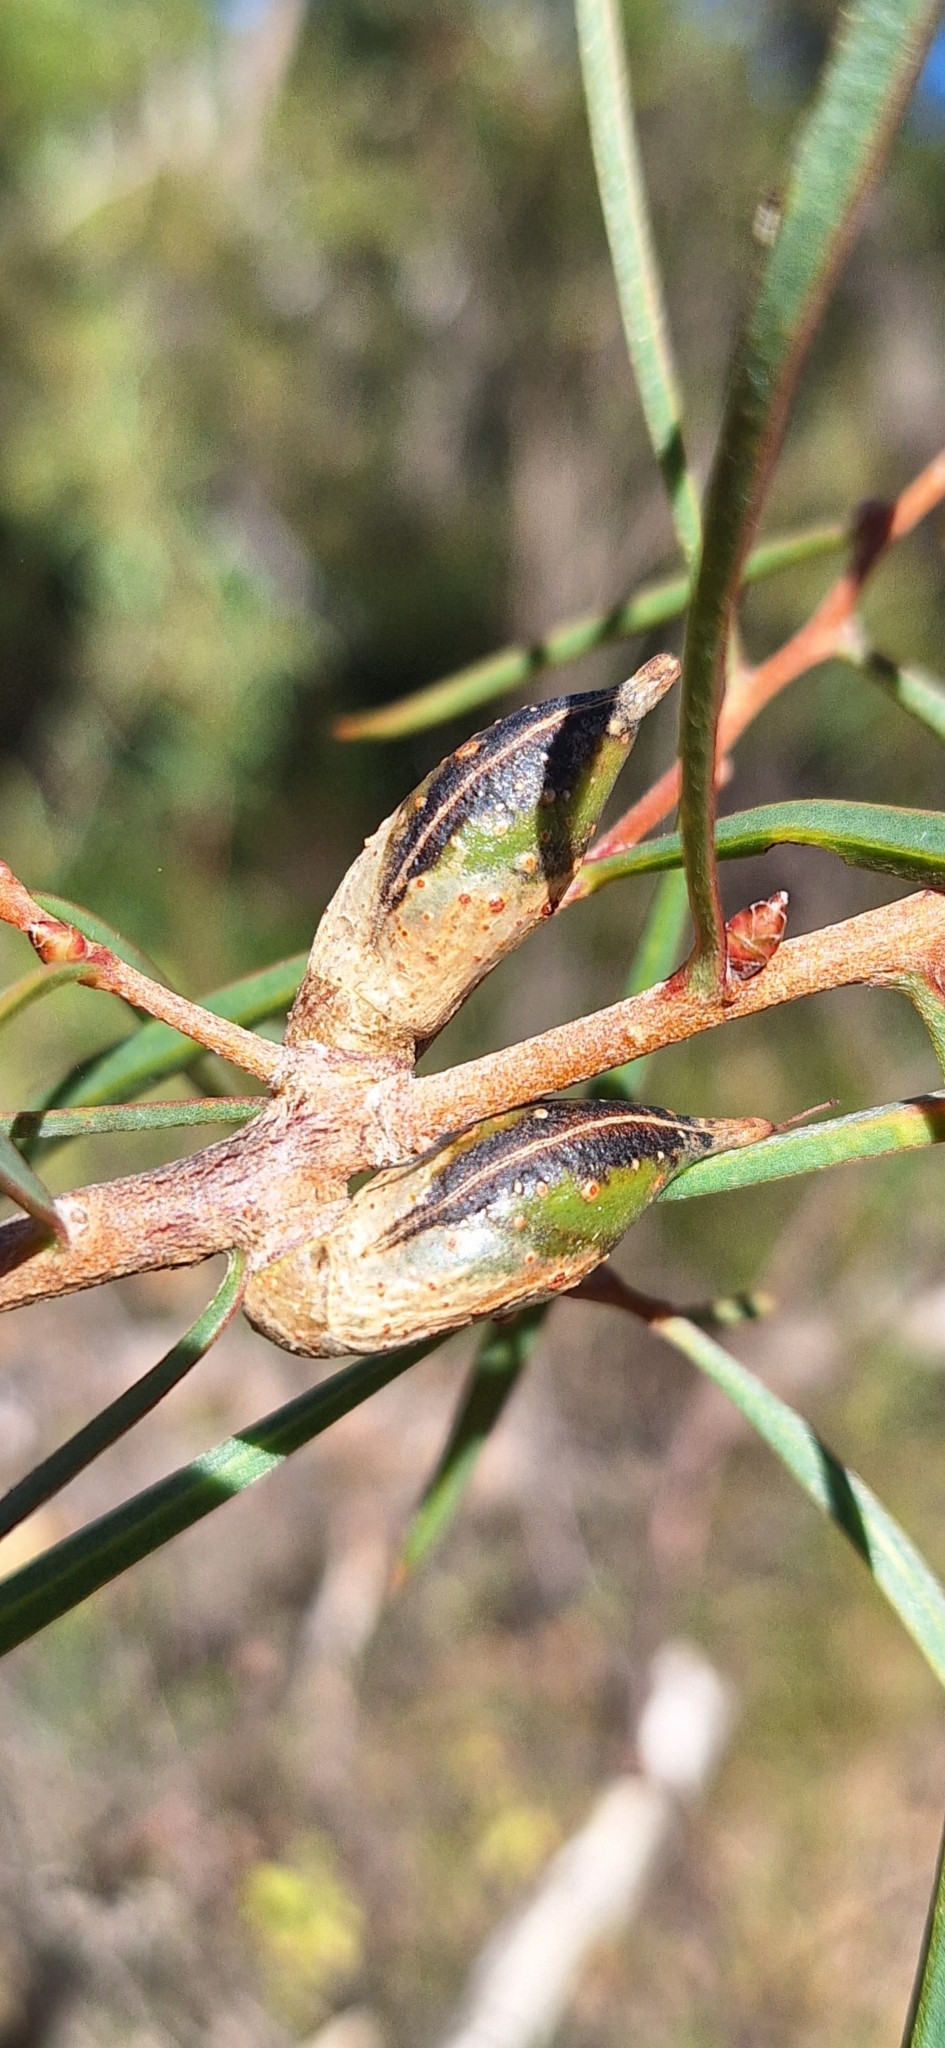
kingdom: Plantae
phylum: Tracheophyta
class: Magnoliopsida
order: Proteales
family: Proteaceae
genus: Hakea
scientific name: Hakea carinata
